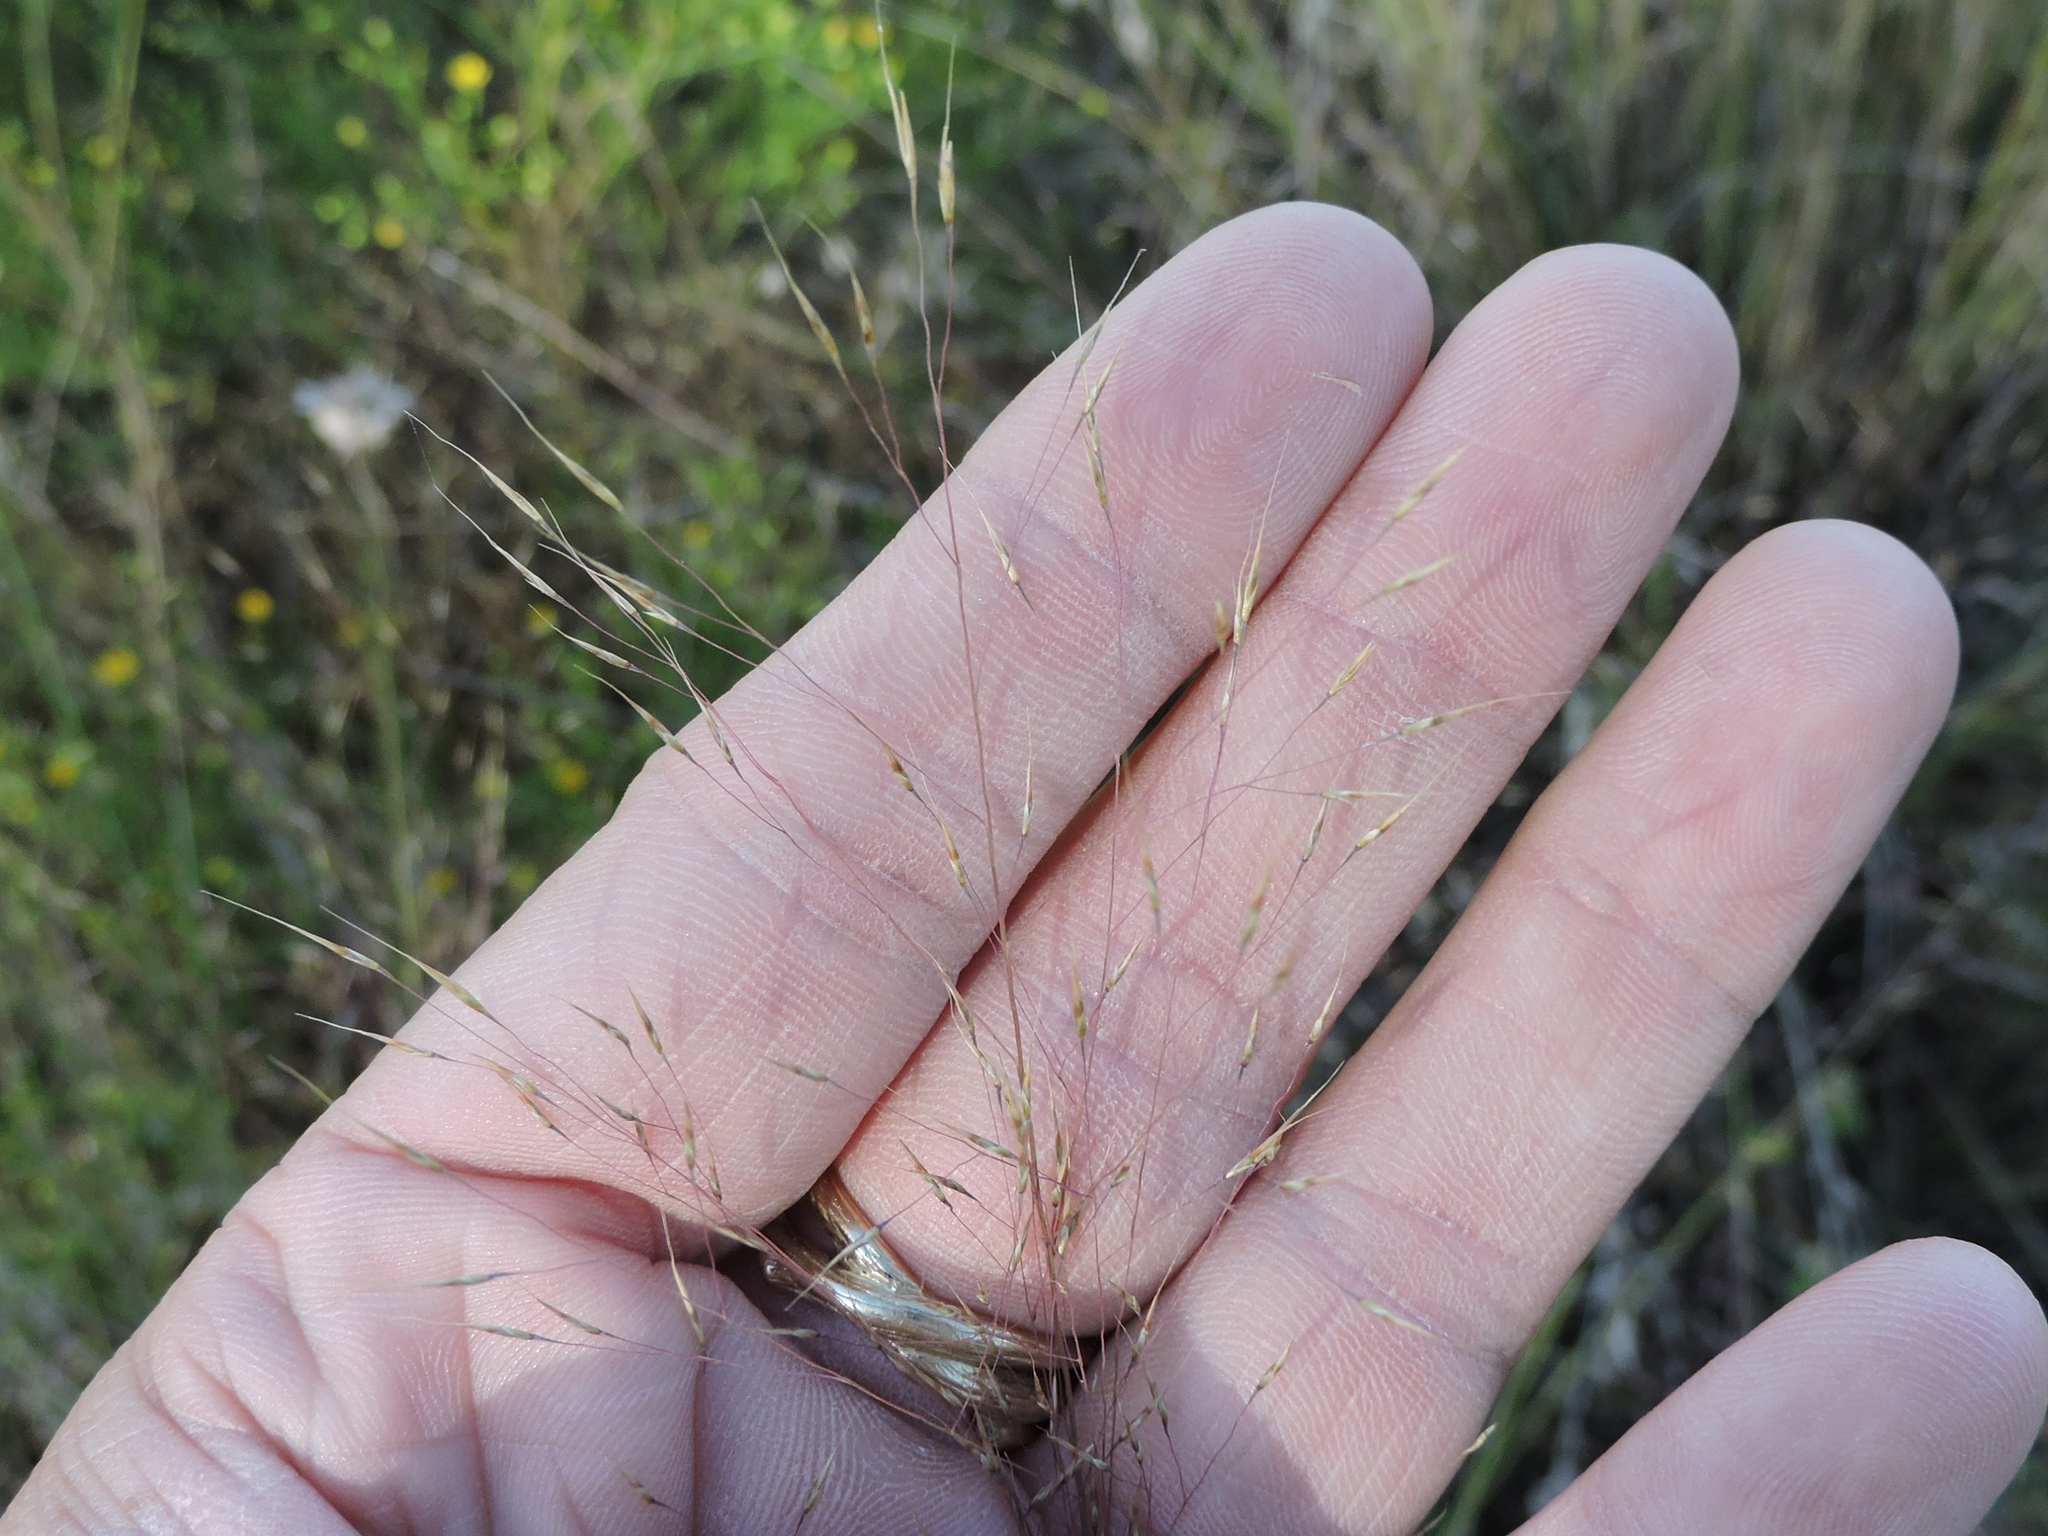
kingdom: Plantae
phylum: Tracheophyta
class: Liliopsida
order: Poales
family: Poaceae
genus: Muhlenbergia
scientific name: Muhlenbergia reverchonii
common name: Seep muhly
